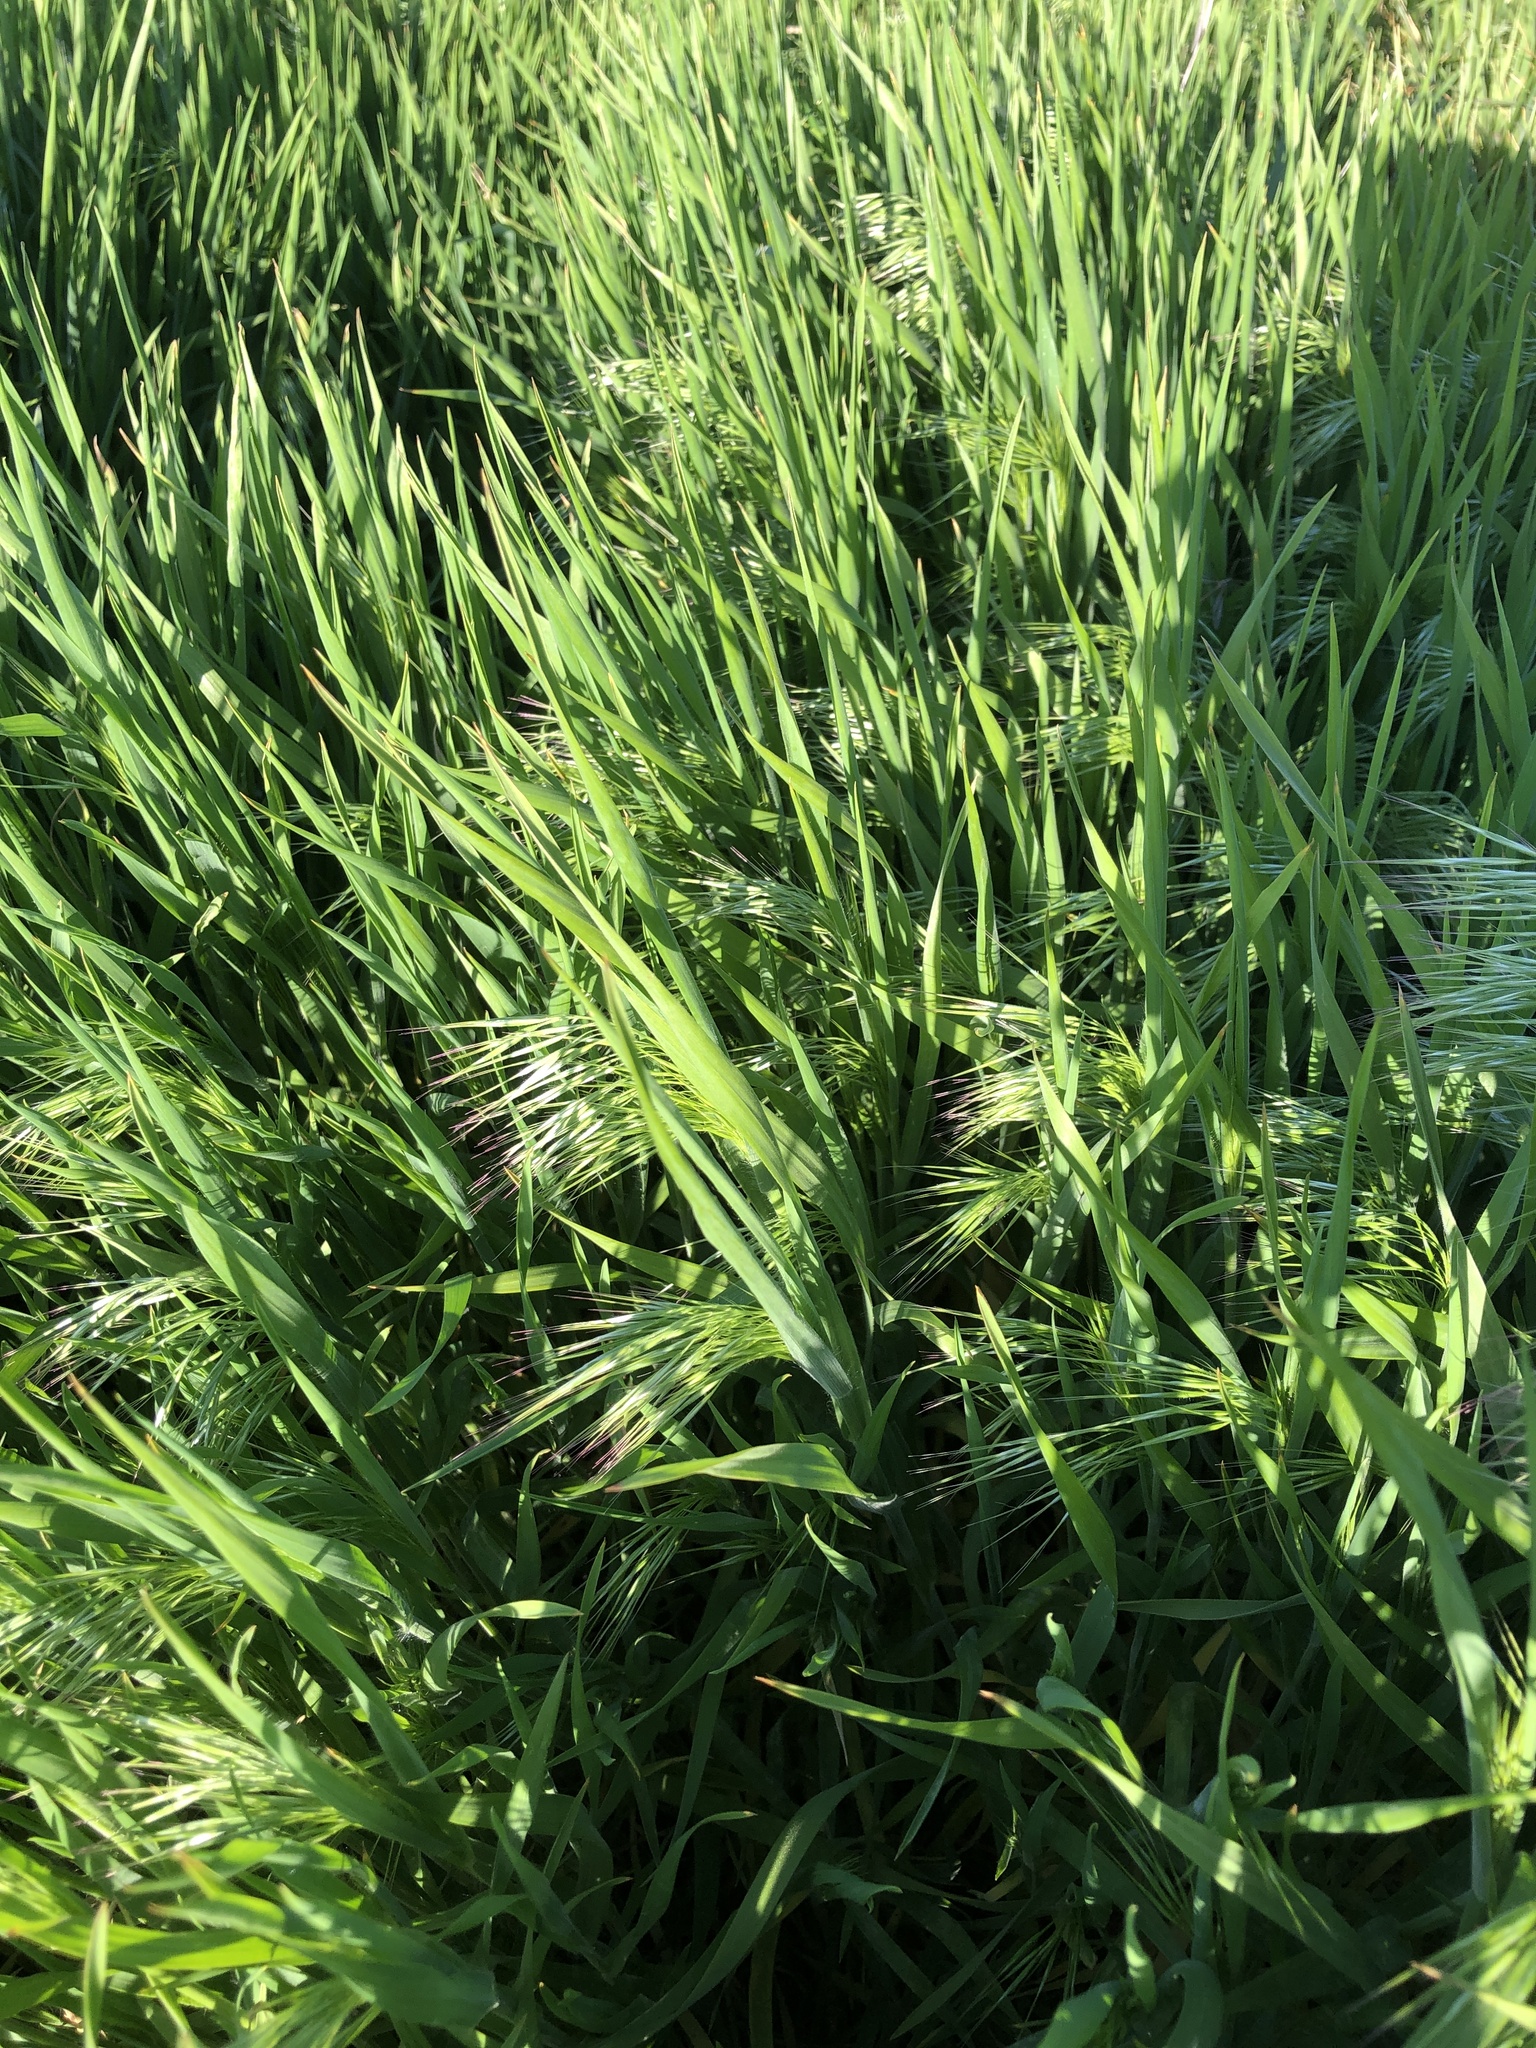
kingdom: Plantae
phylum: Tracheophyta
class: Liliopsida
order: Poales
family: Poaceae
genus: Bromus
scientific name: Bromus tectorum
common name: Cheatgrass
